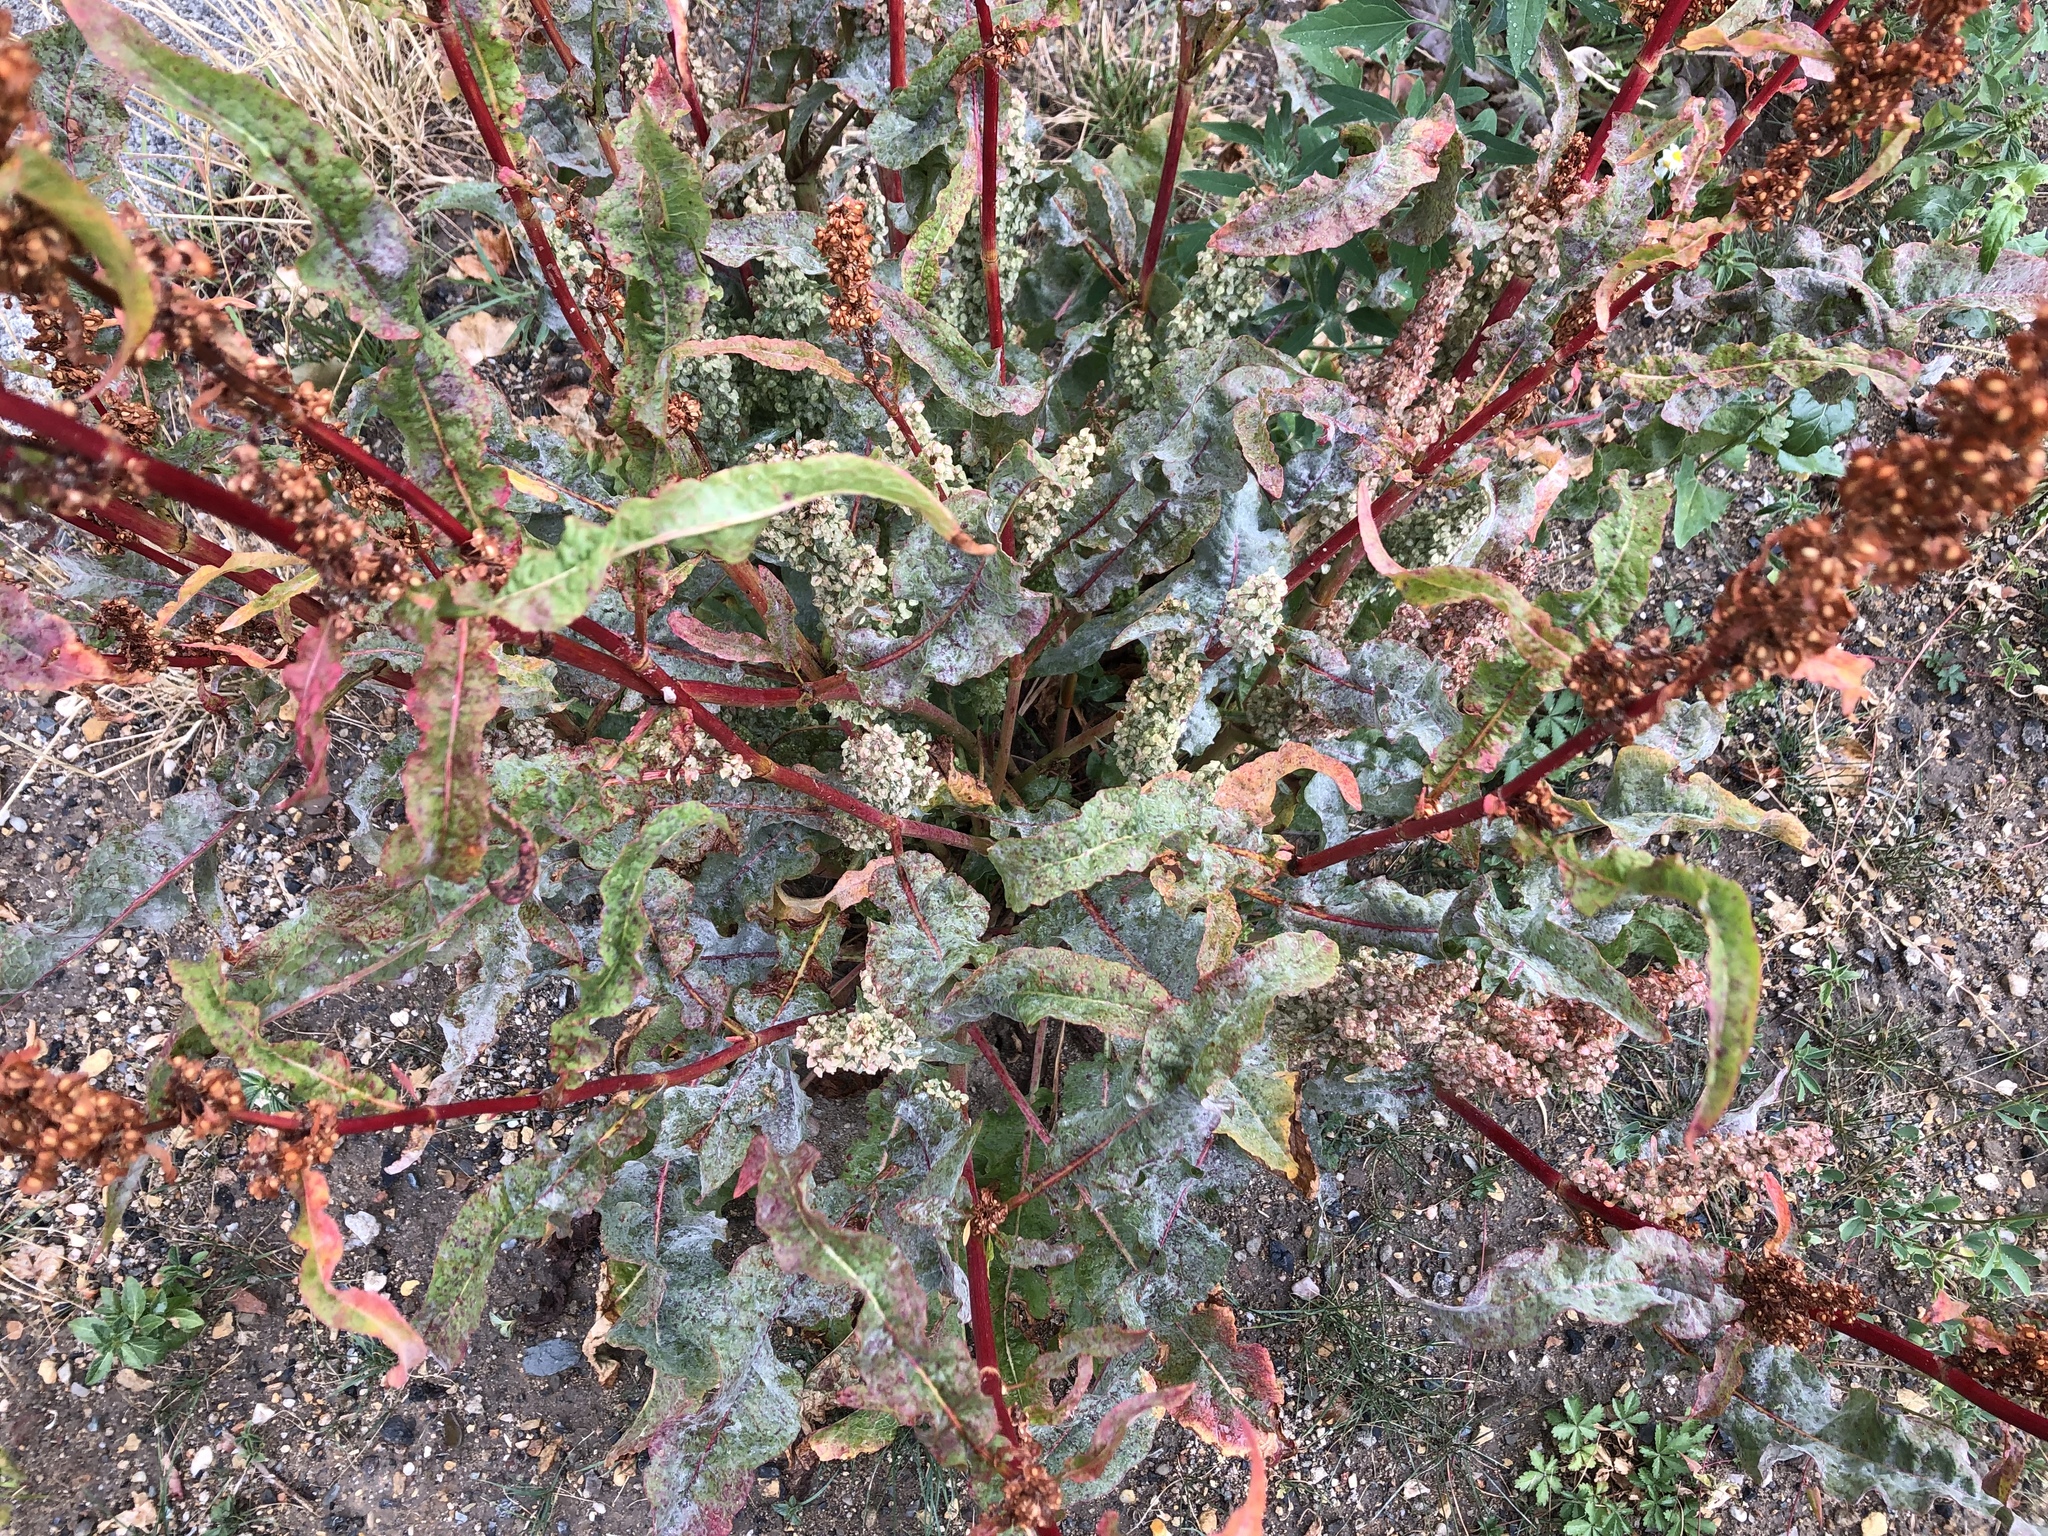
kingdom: Plantae
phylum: Tracheophyta
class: Magnoliopsida
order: Caryophyllales
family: Polygonaceae
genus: Rumex
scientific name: Rumex crispus
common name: Curled dock
